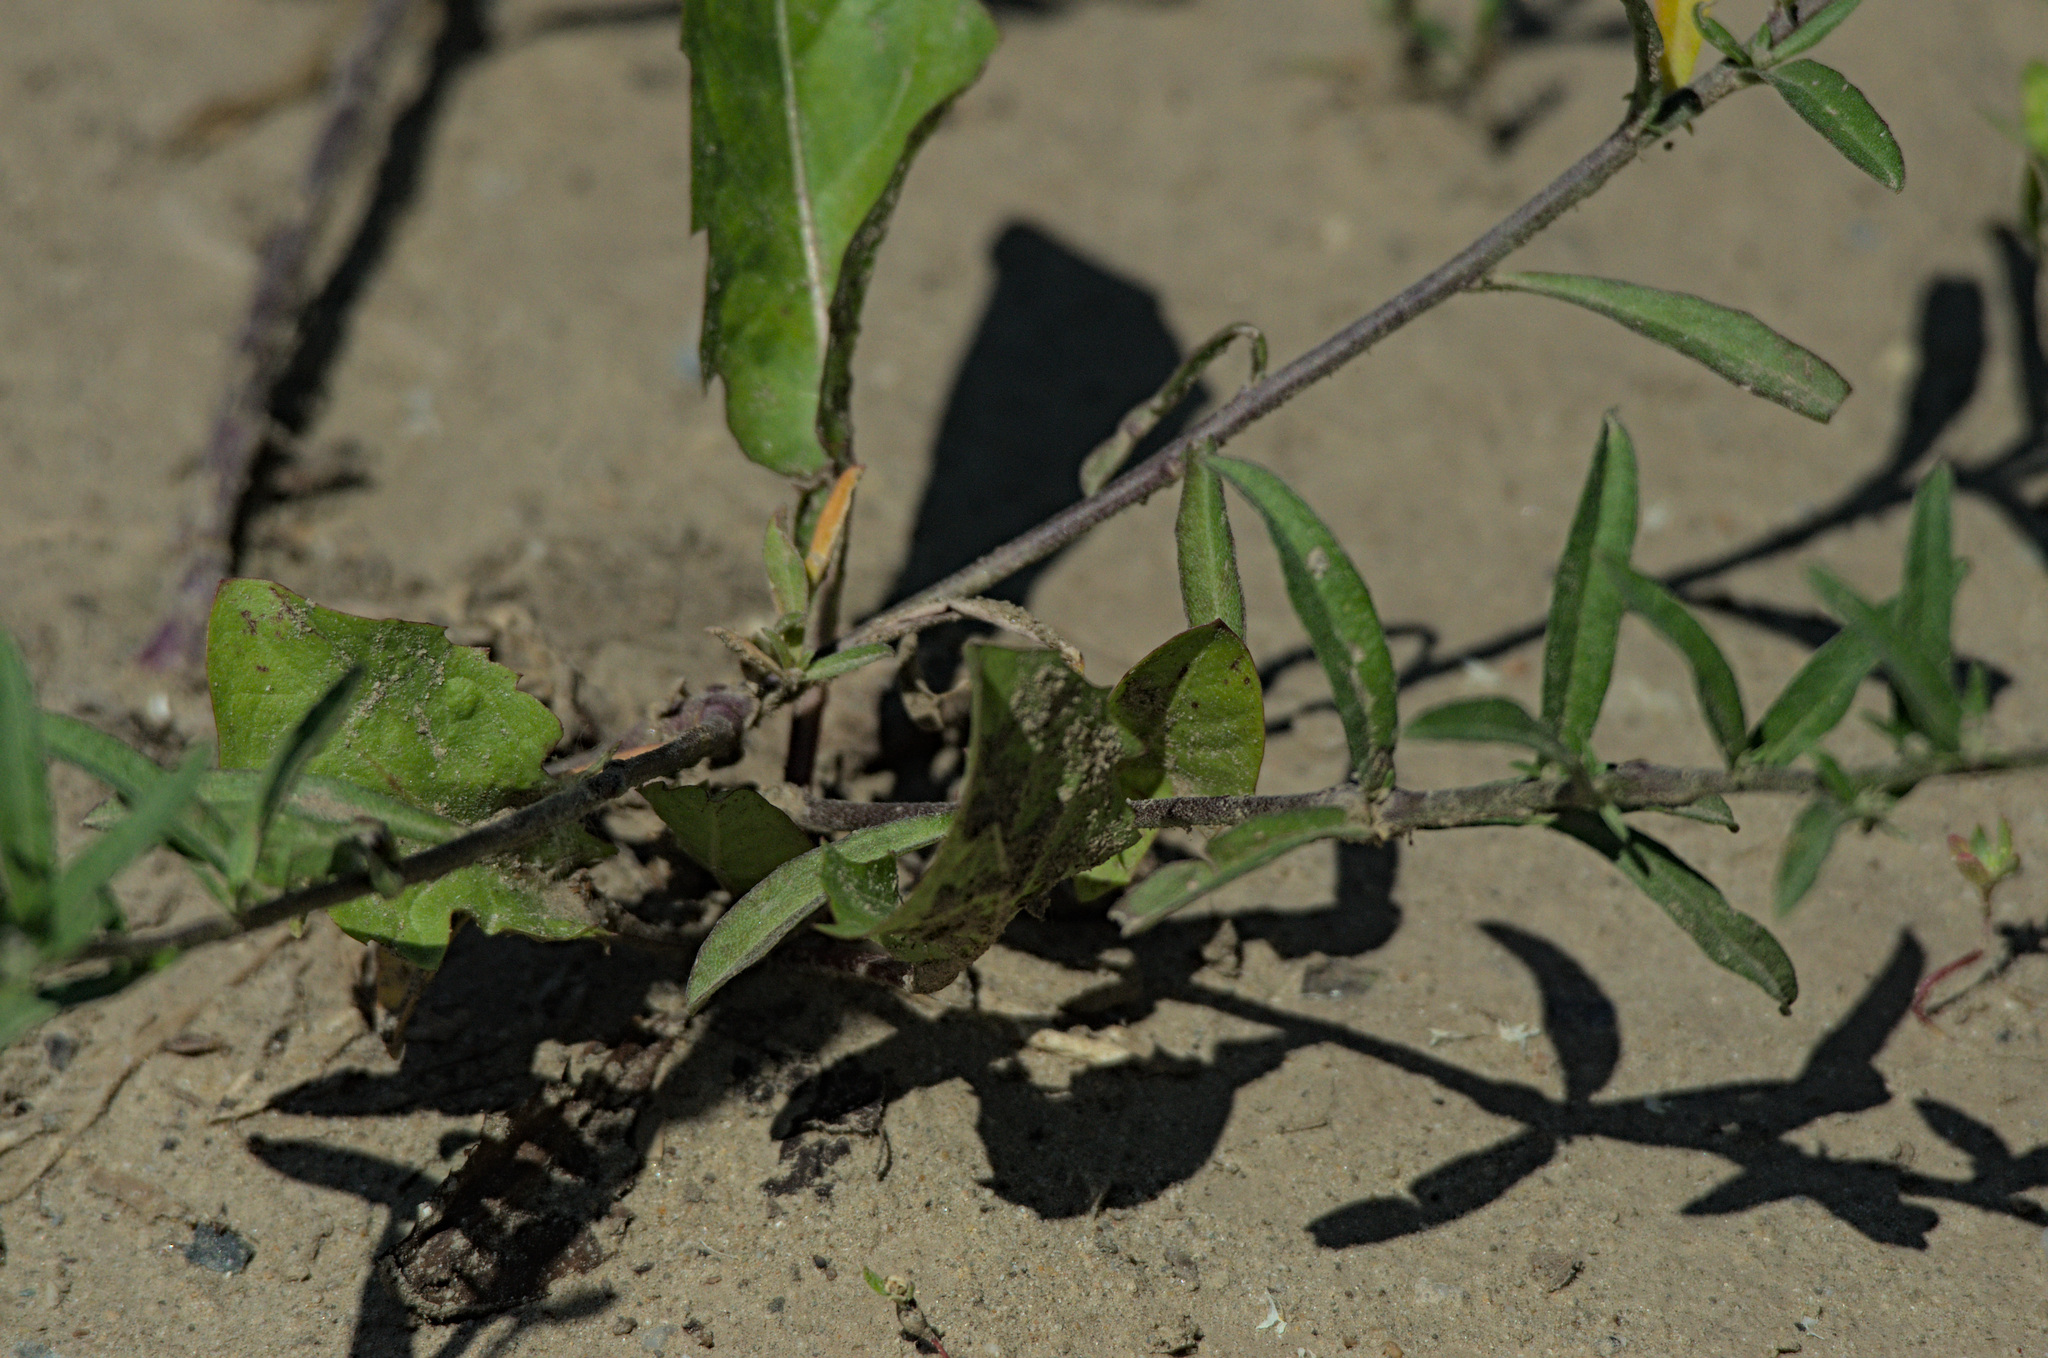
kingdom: Plantae
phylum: Tracheophyta
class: Magnoliopsida
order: Brassicales
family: Brassicaceae
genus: Berteroa
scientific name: Berteroa incana
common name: Hoary alison
